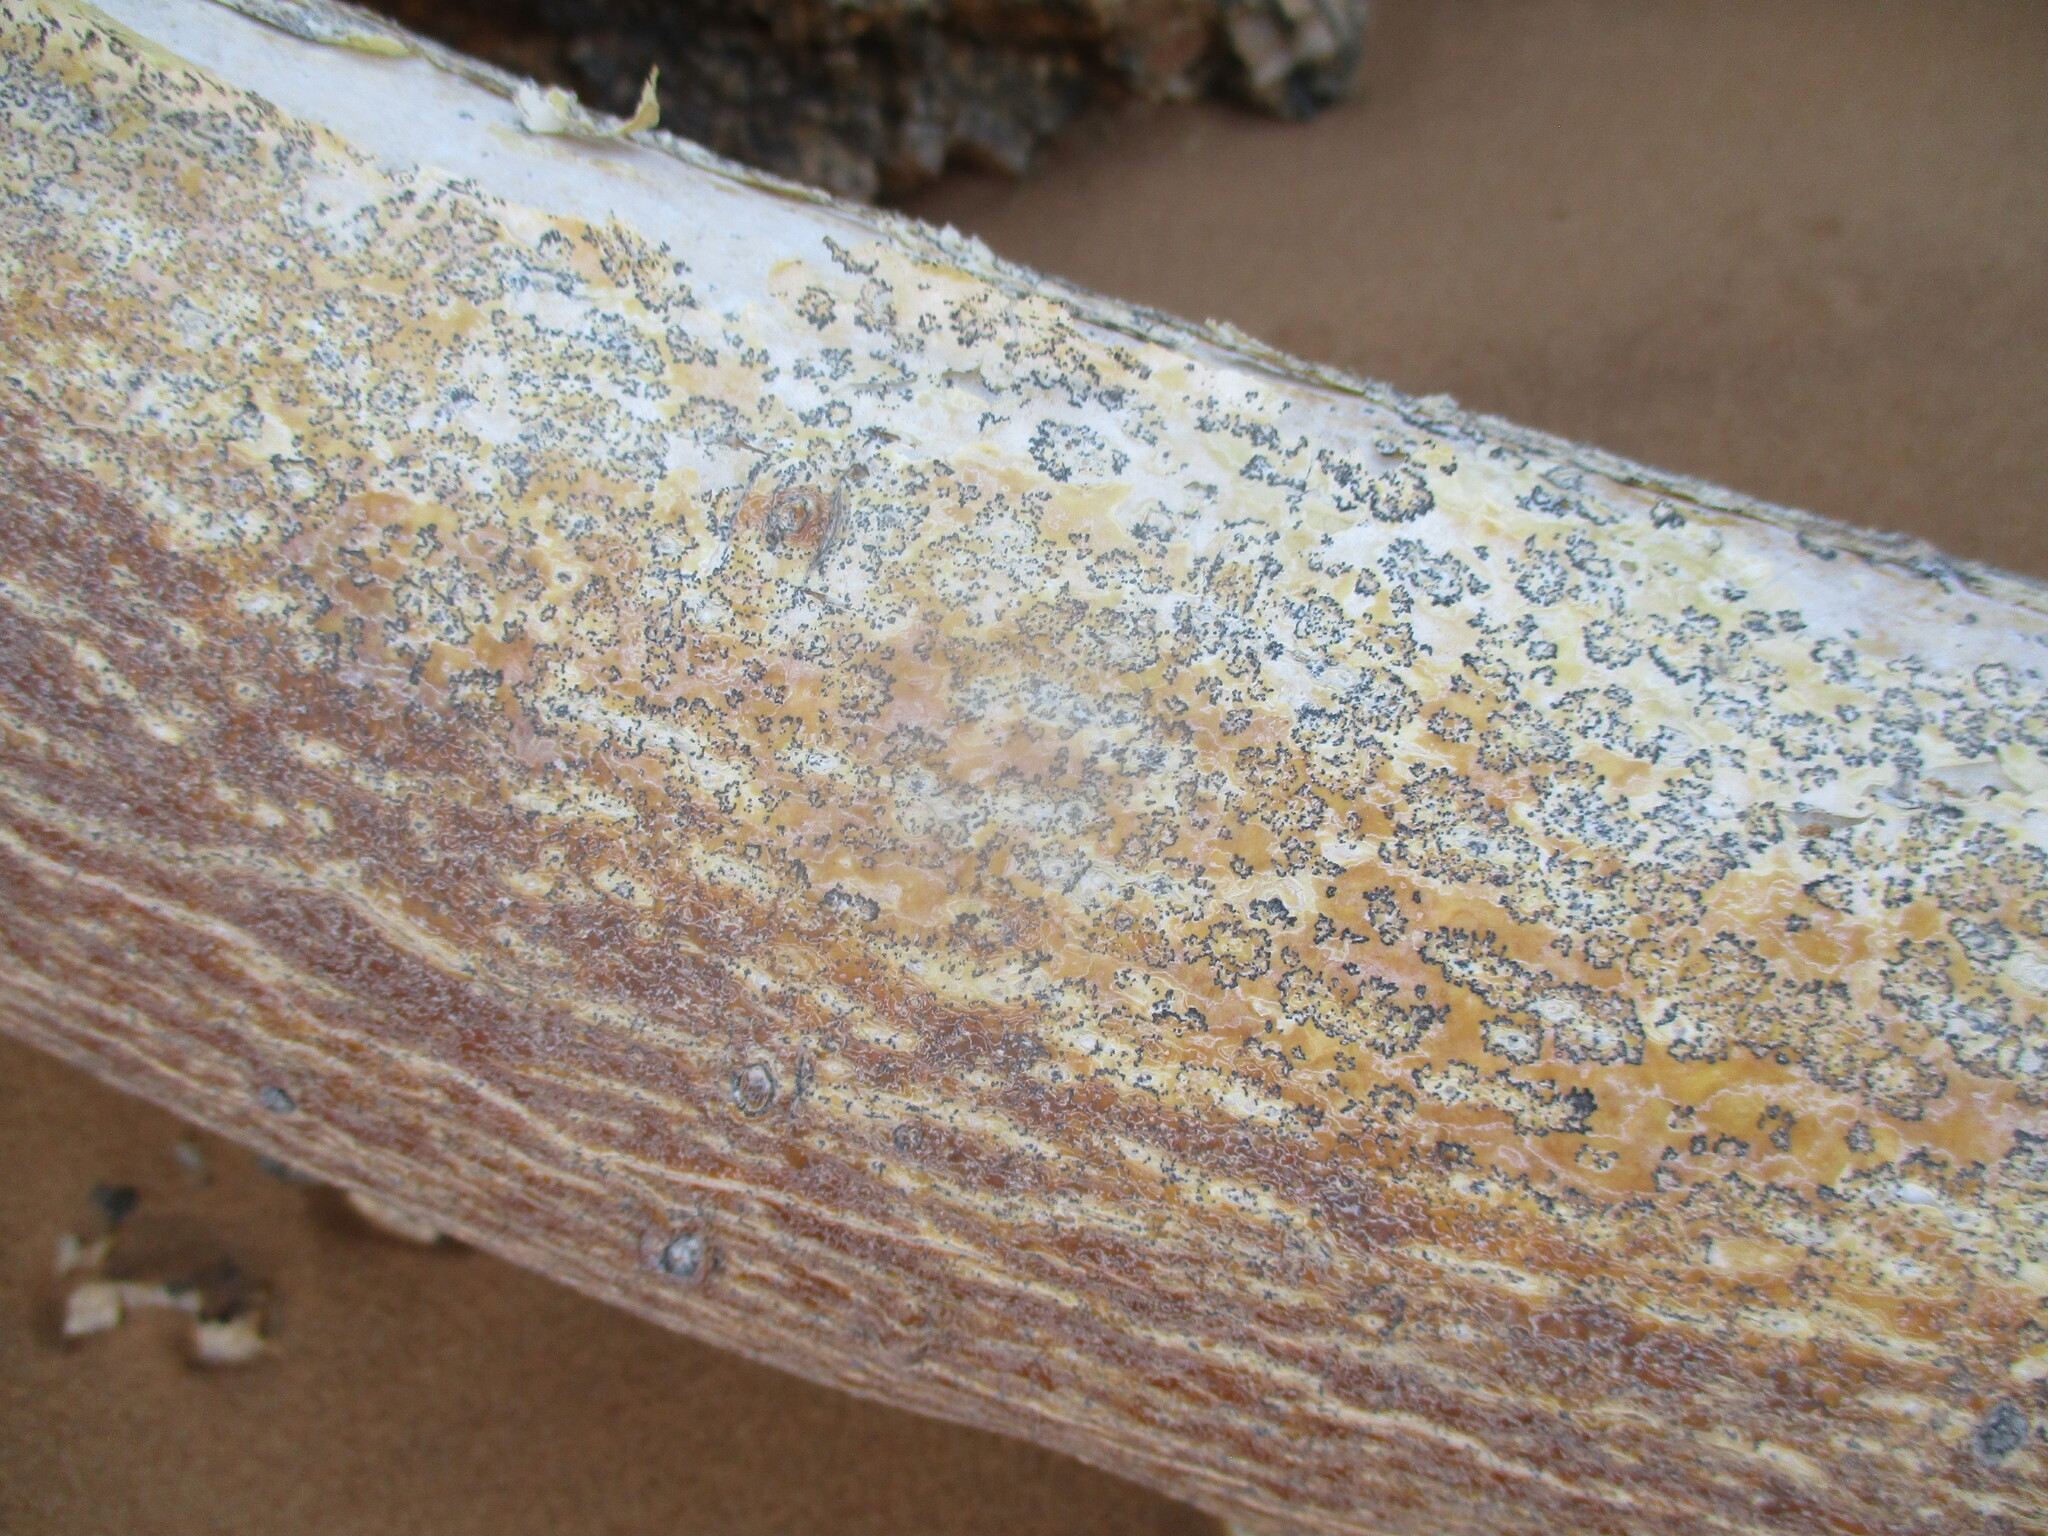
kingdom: Plantae
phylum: Tracheophyta
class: Magnoliopsida
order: Sapindales
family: Burseraceae
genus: Commiphora
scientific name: Commiphora saxicola
